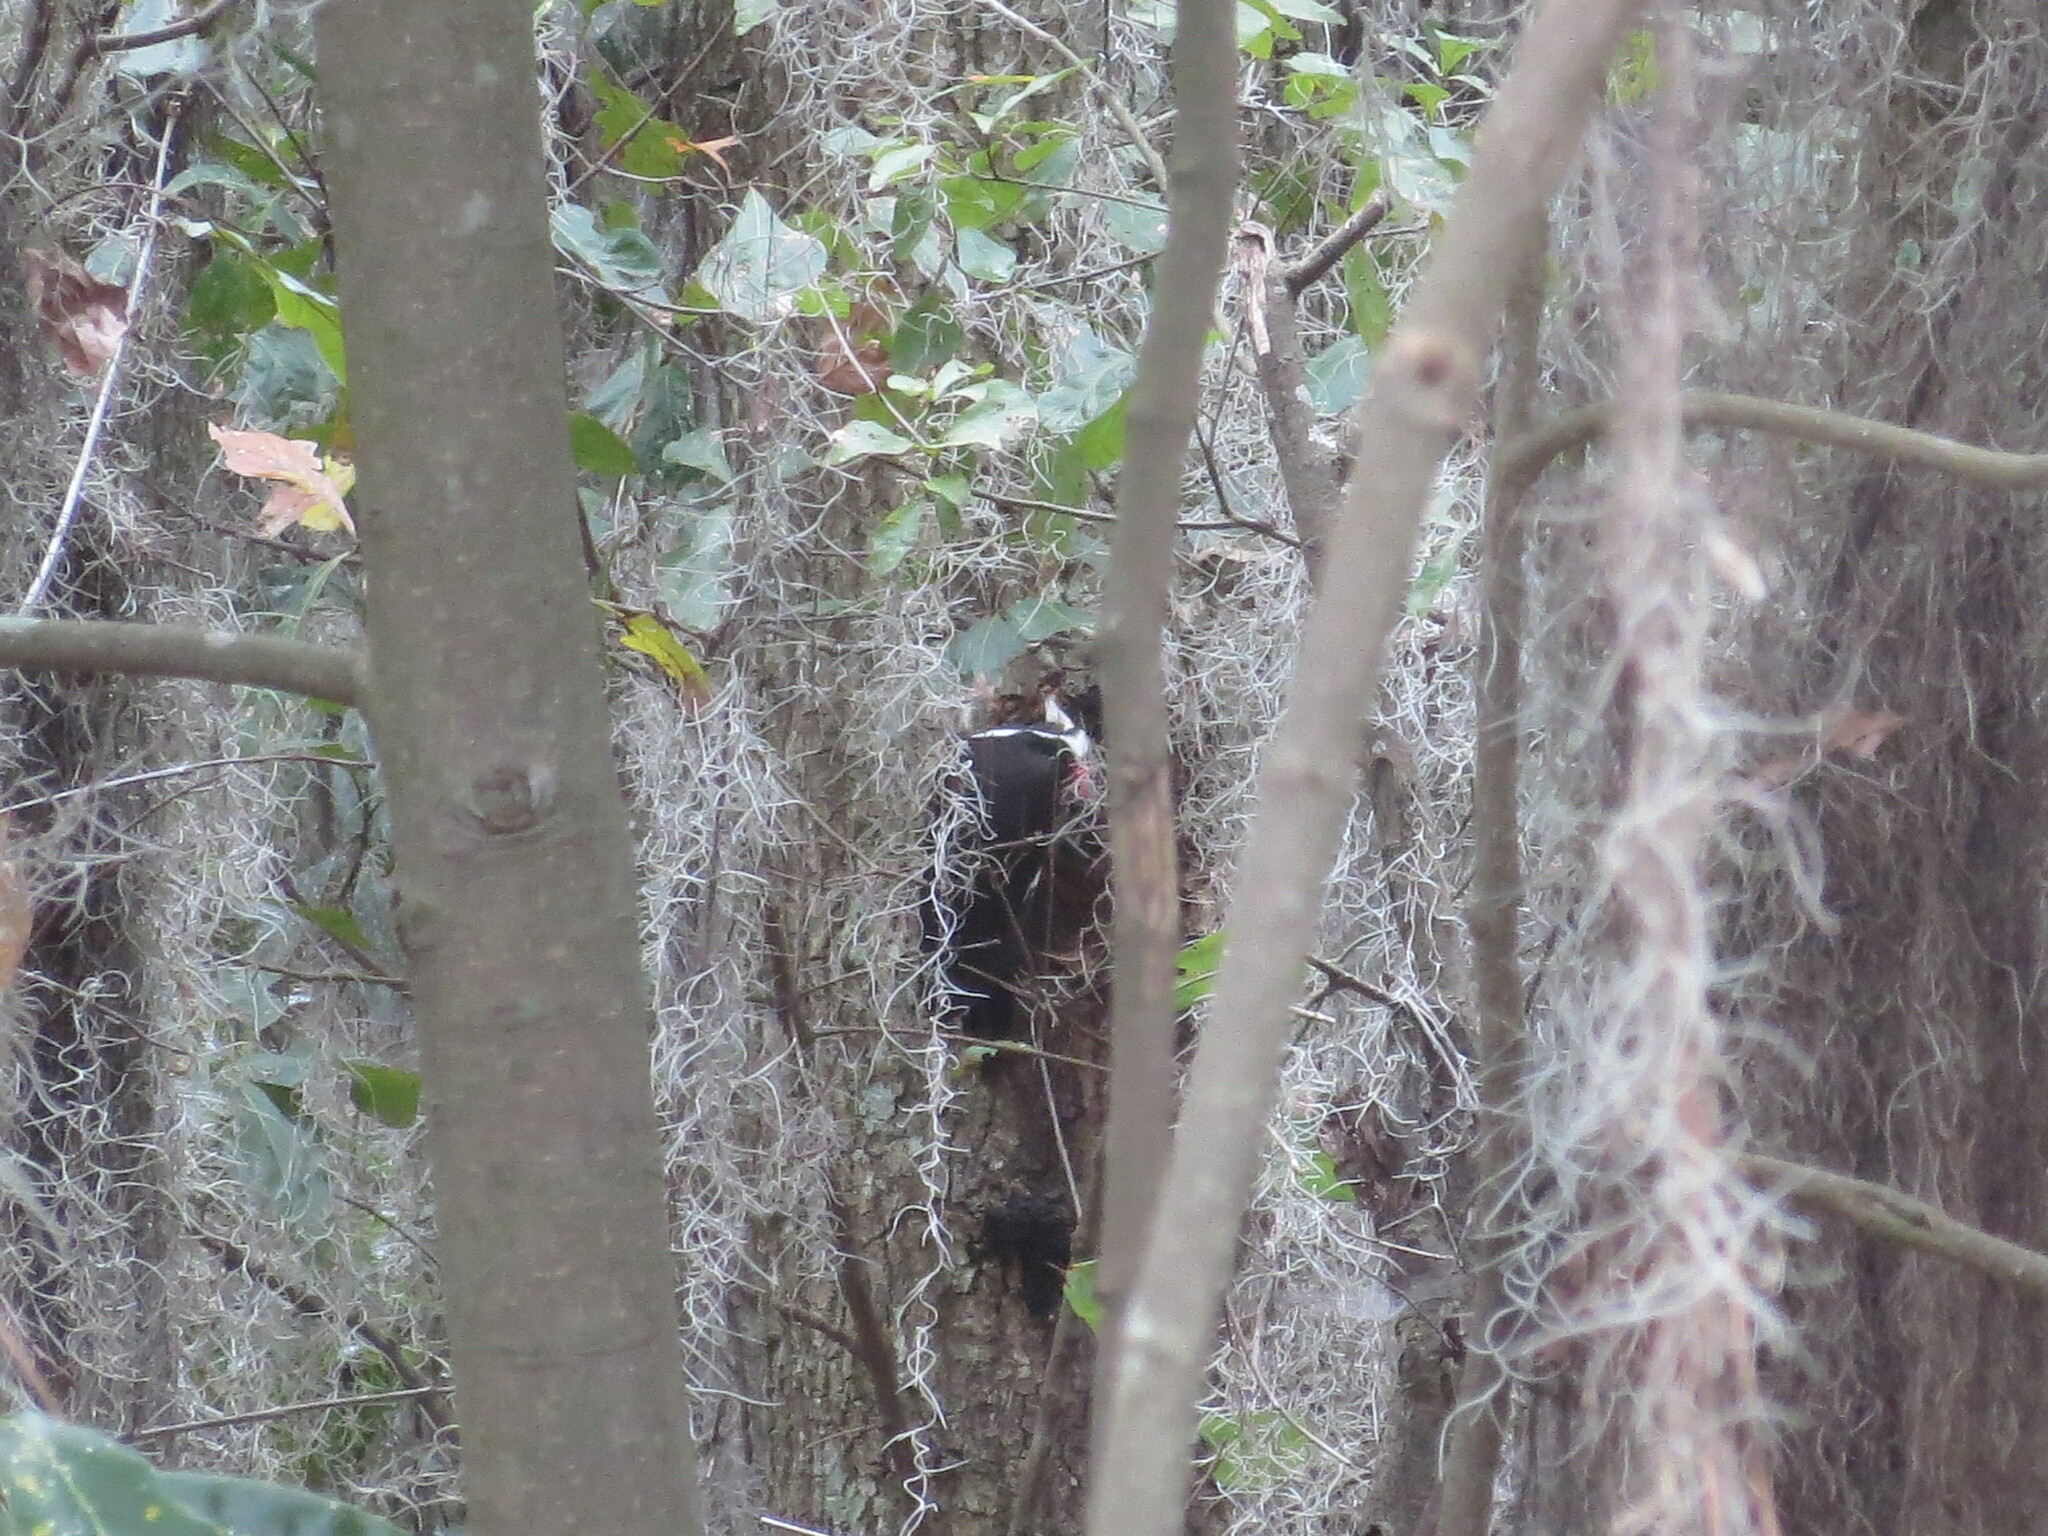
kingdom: Animalia
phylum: Chordata
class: Aves
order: Piciformes
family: Picidae
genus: Dryocopus
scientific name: Dryocopus pileatus
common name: Pileated woodpecker
